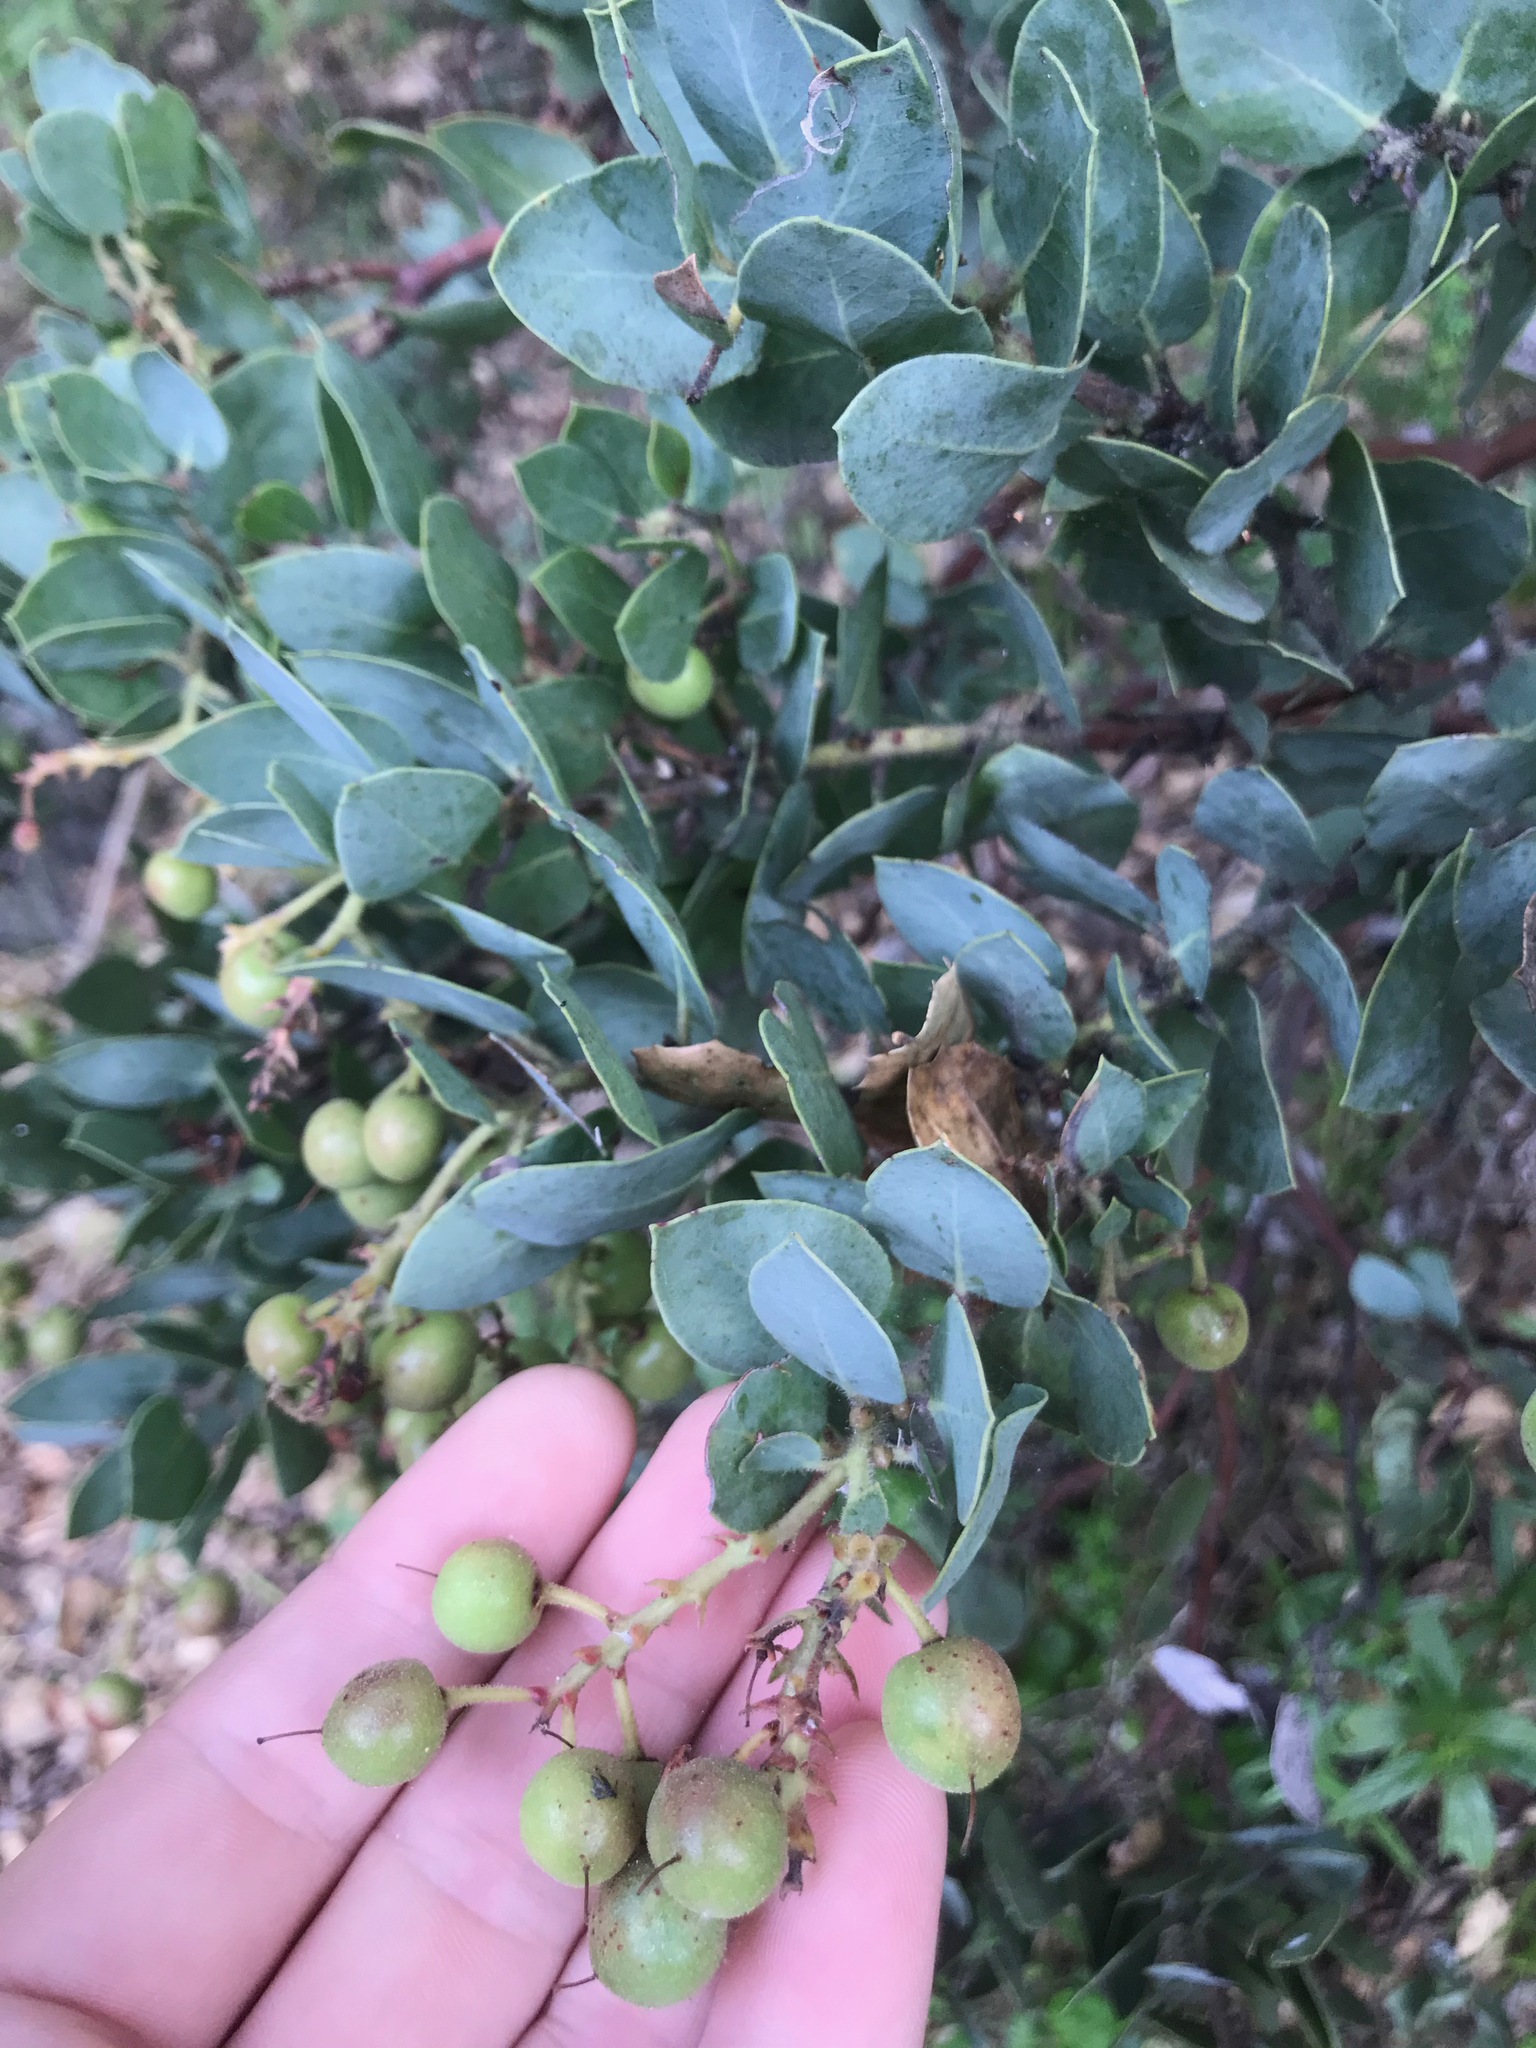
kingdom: Plantae
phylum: Tracheophyta
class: Magnoliopsida
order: Ericales
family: Ericaceae
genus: Arctostaphylos
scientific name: Arctostaphylos glauca
